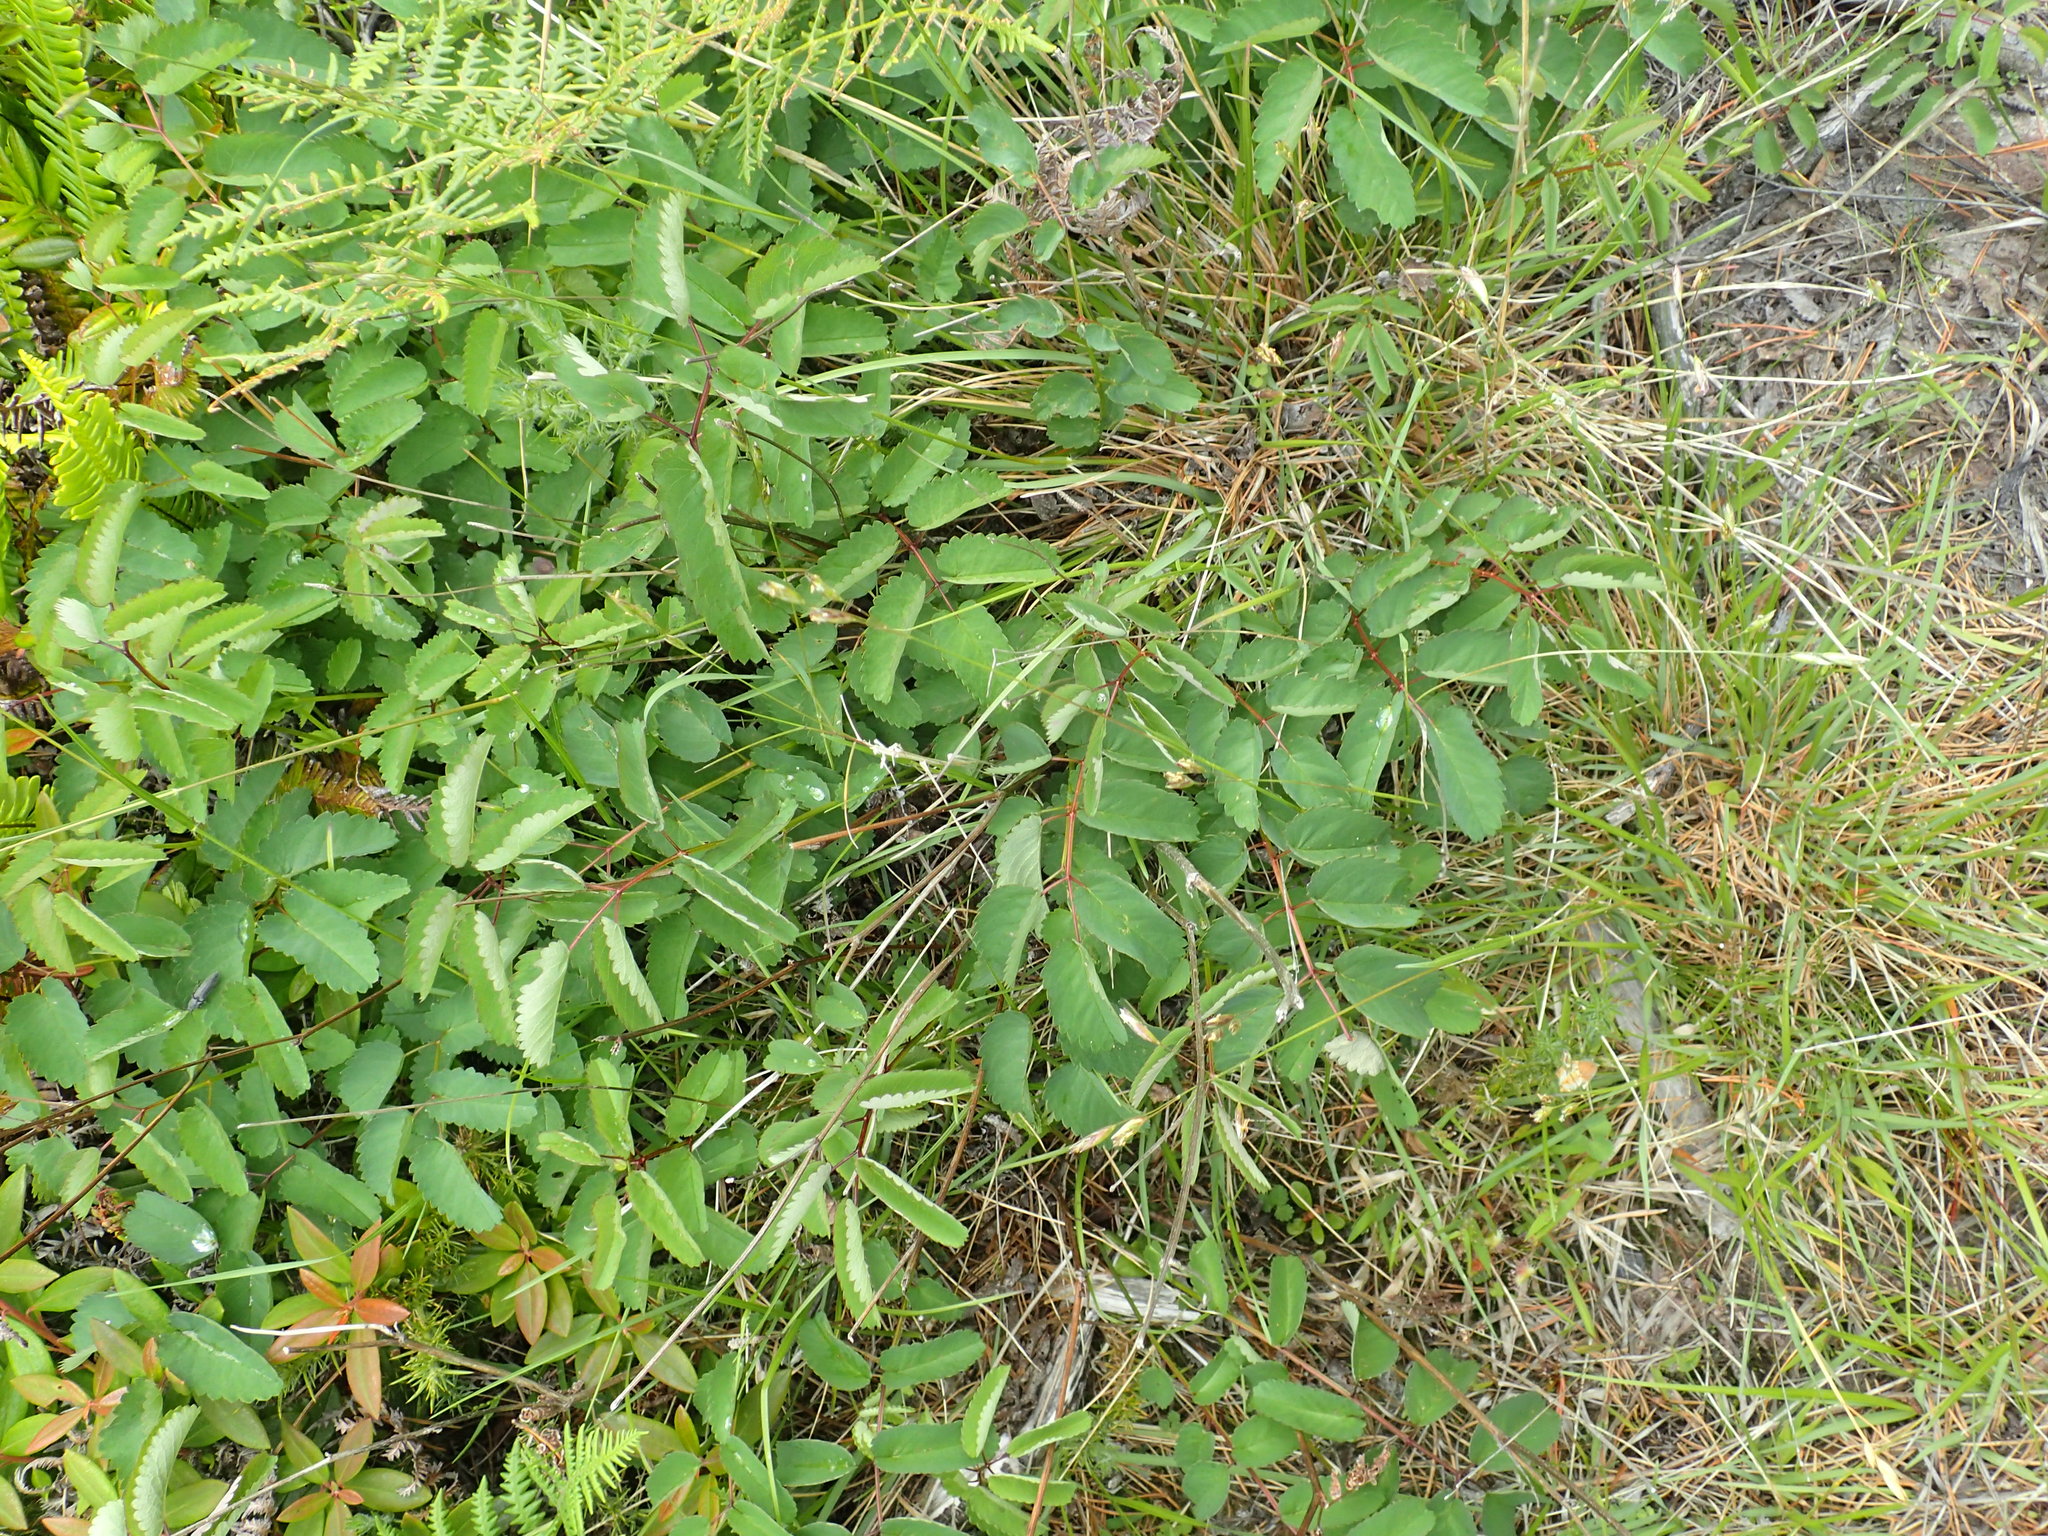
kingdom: Plantae
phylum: Tracheophyta
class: Magnoliopsida
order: Rosales
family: Rosaceae
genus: Sanguisorba
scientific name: Sanguisorba officinalis
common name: Great burnet
